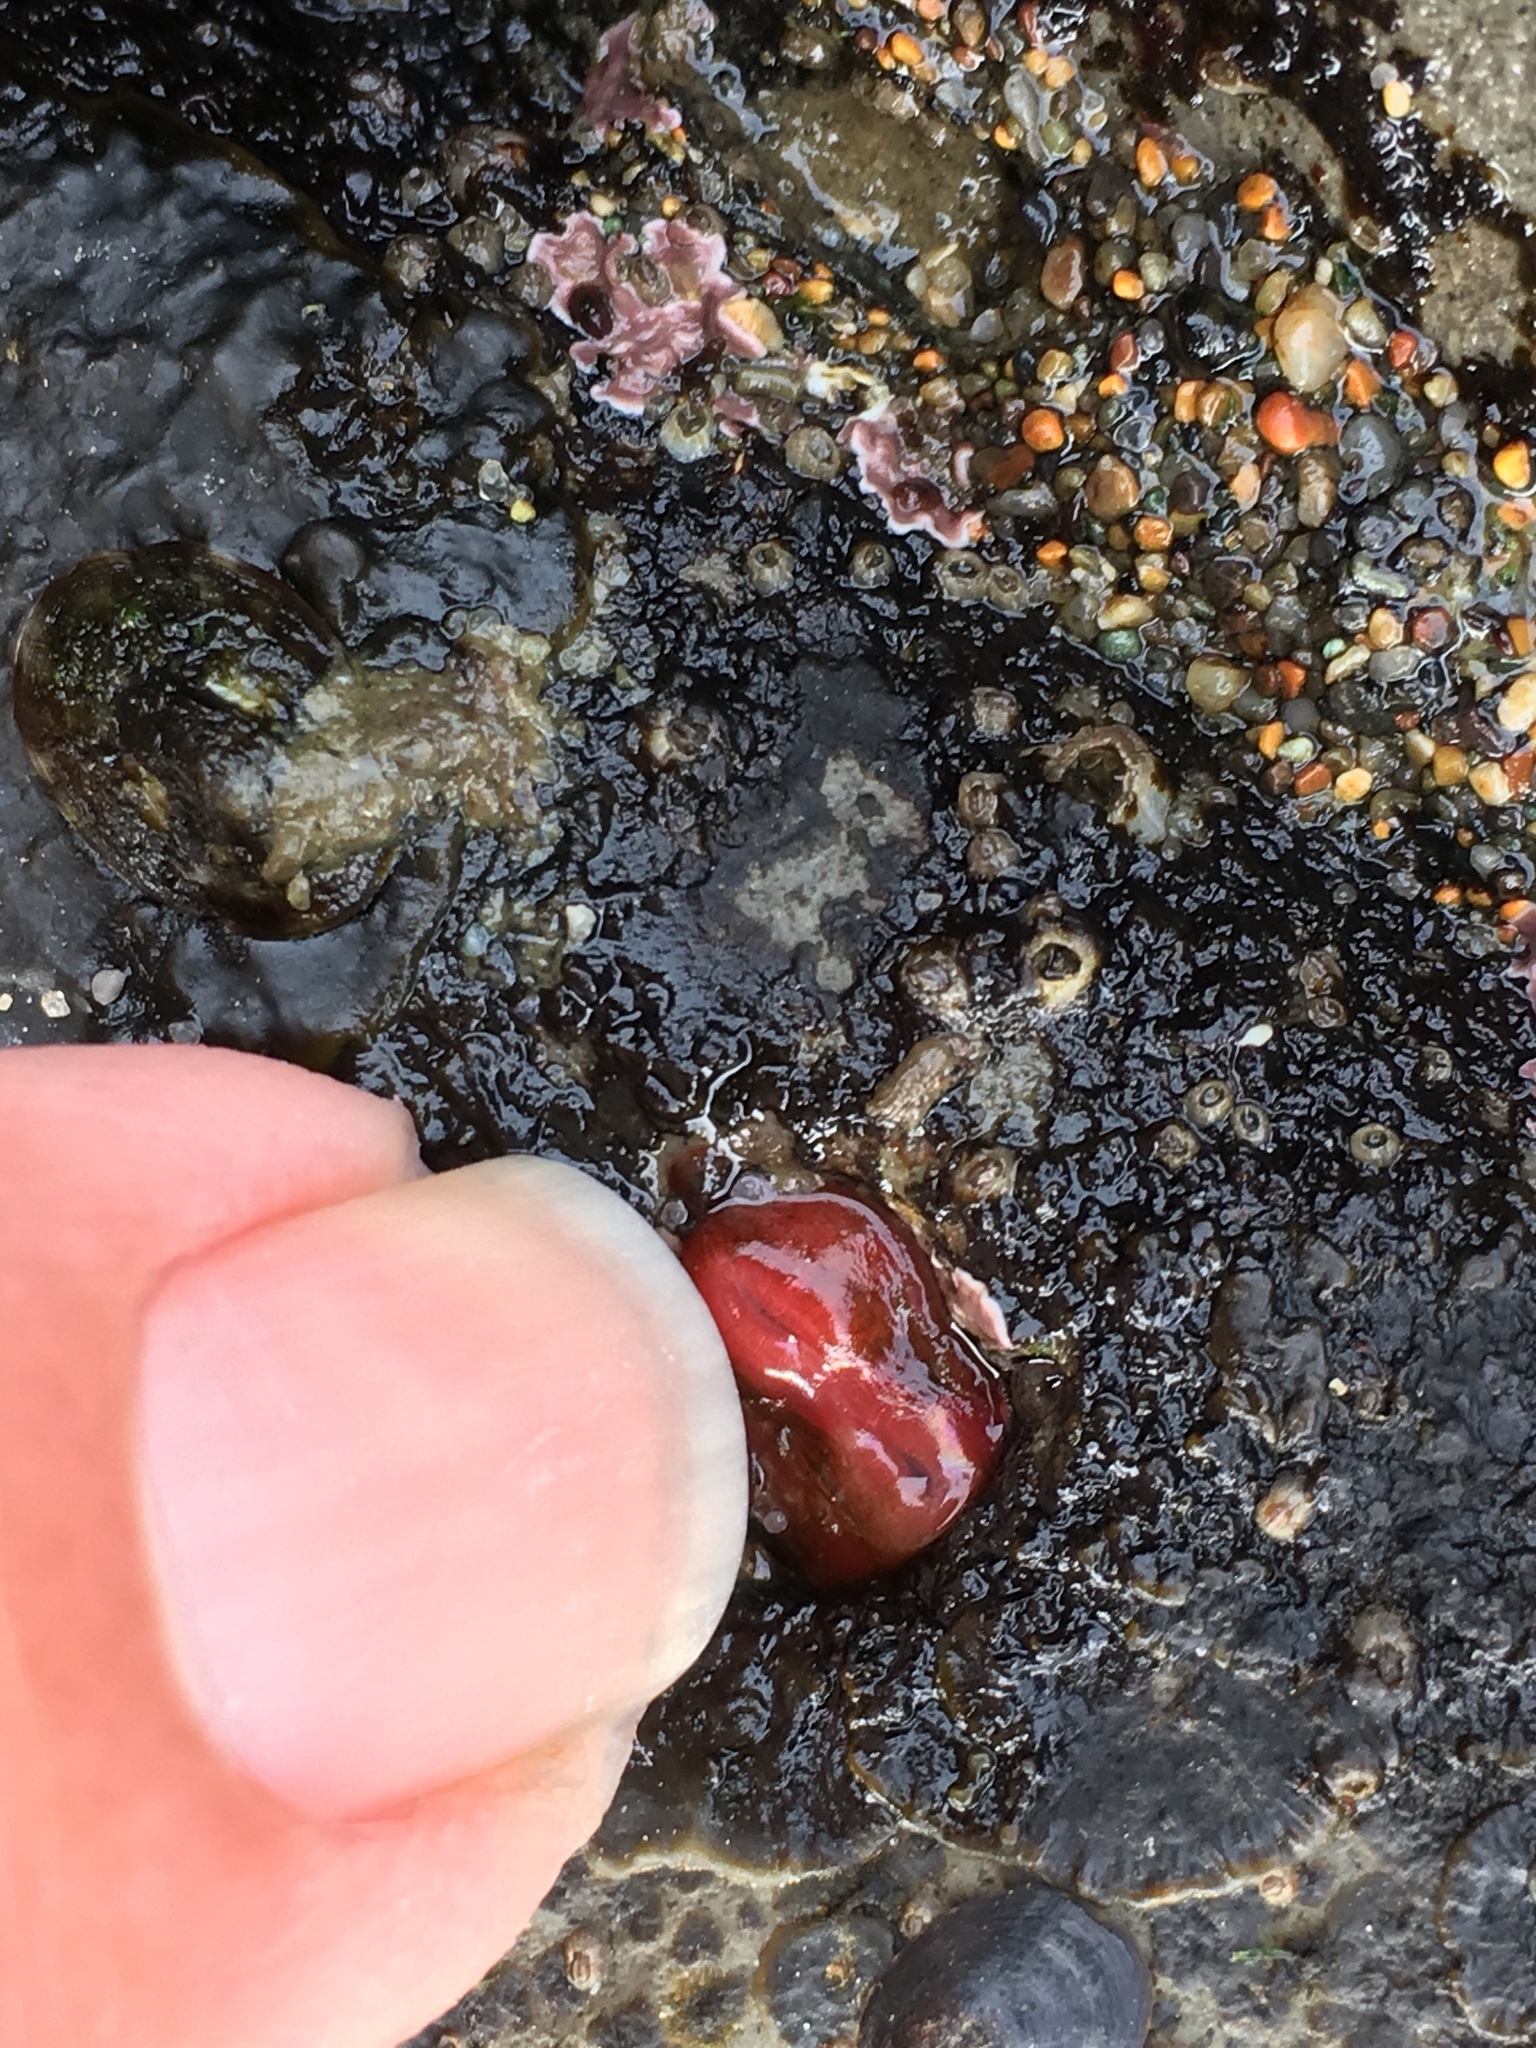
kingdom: Animalia
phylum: Mollusca
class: Bivalvia
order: Adapedonta
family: Hiatellidae
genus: Hiatella
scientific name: Hiatella arctica
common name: Arctic hiatella
